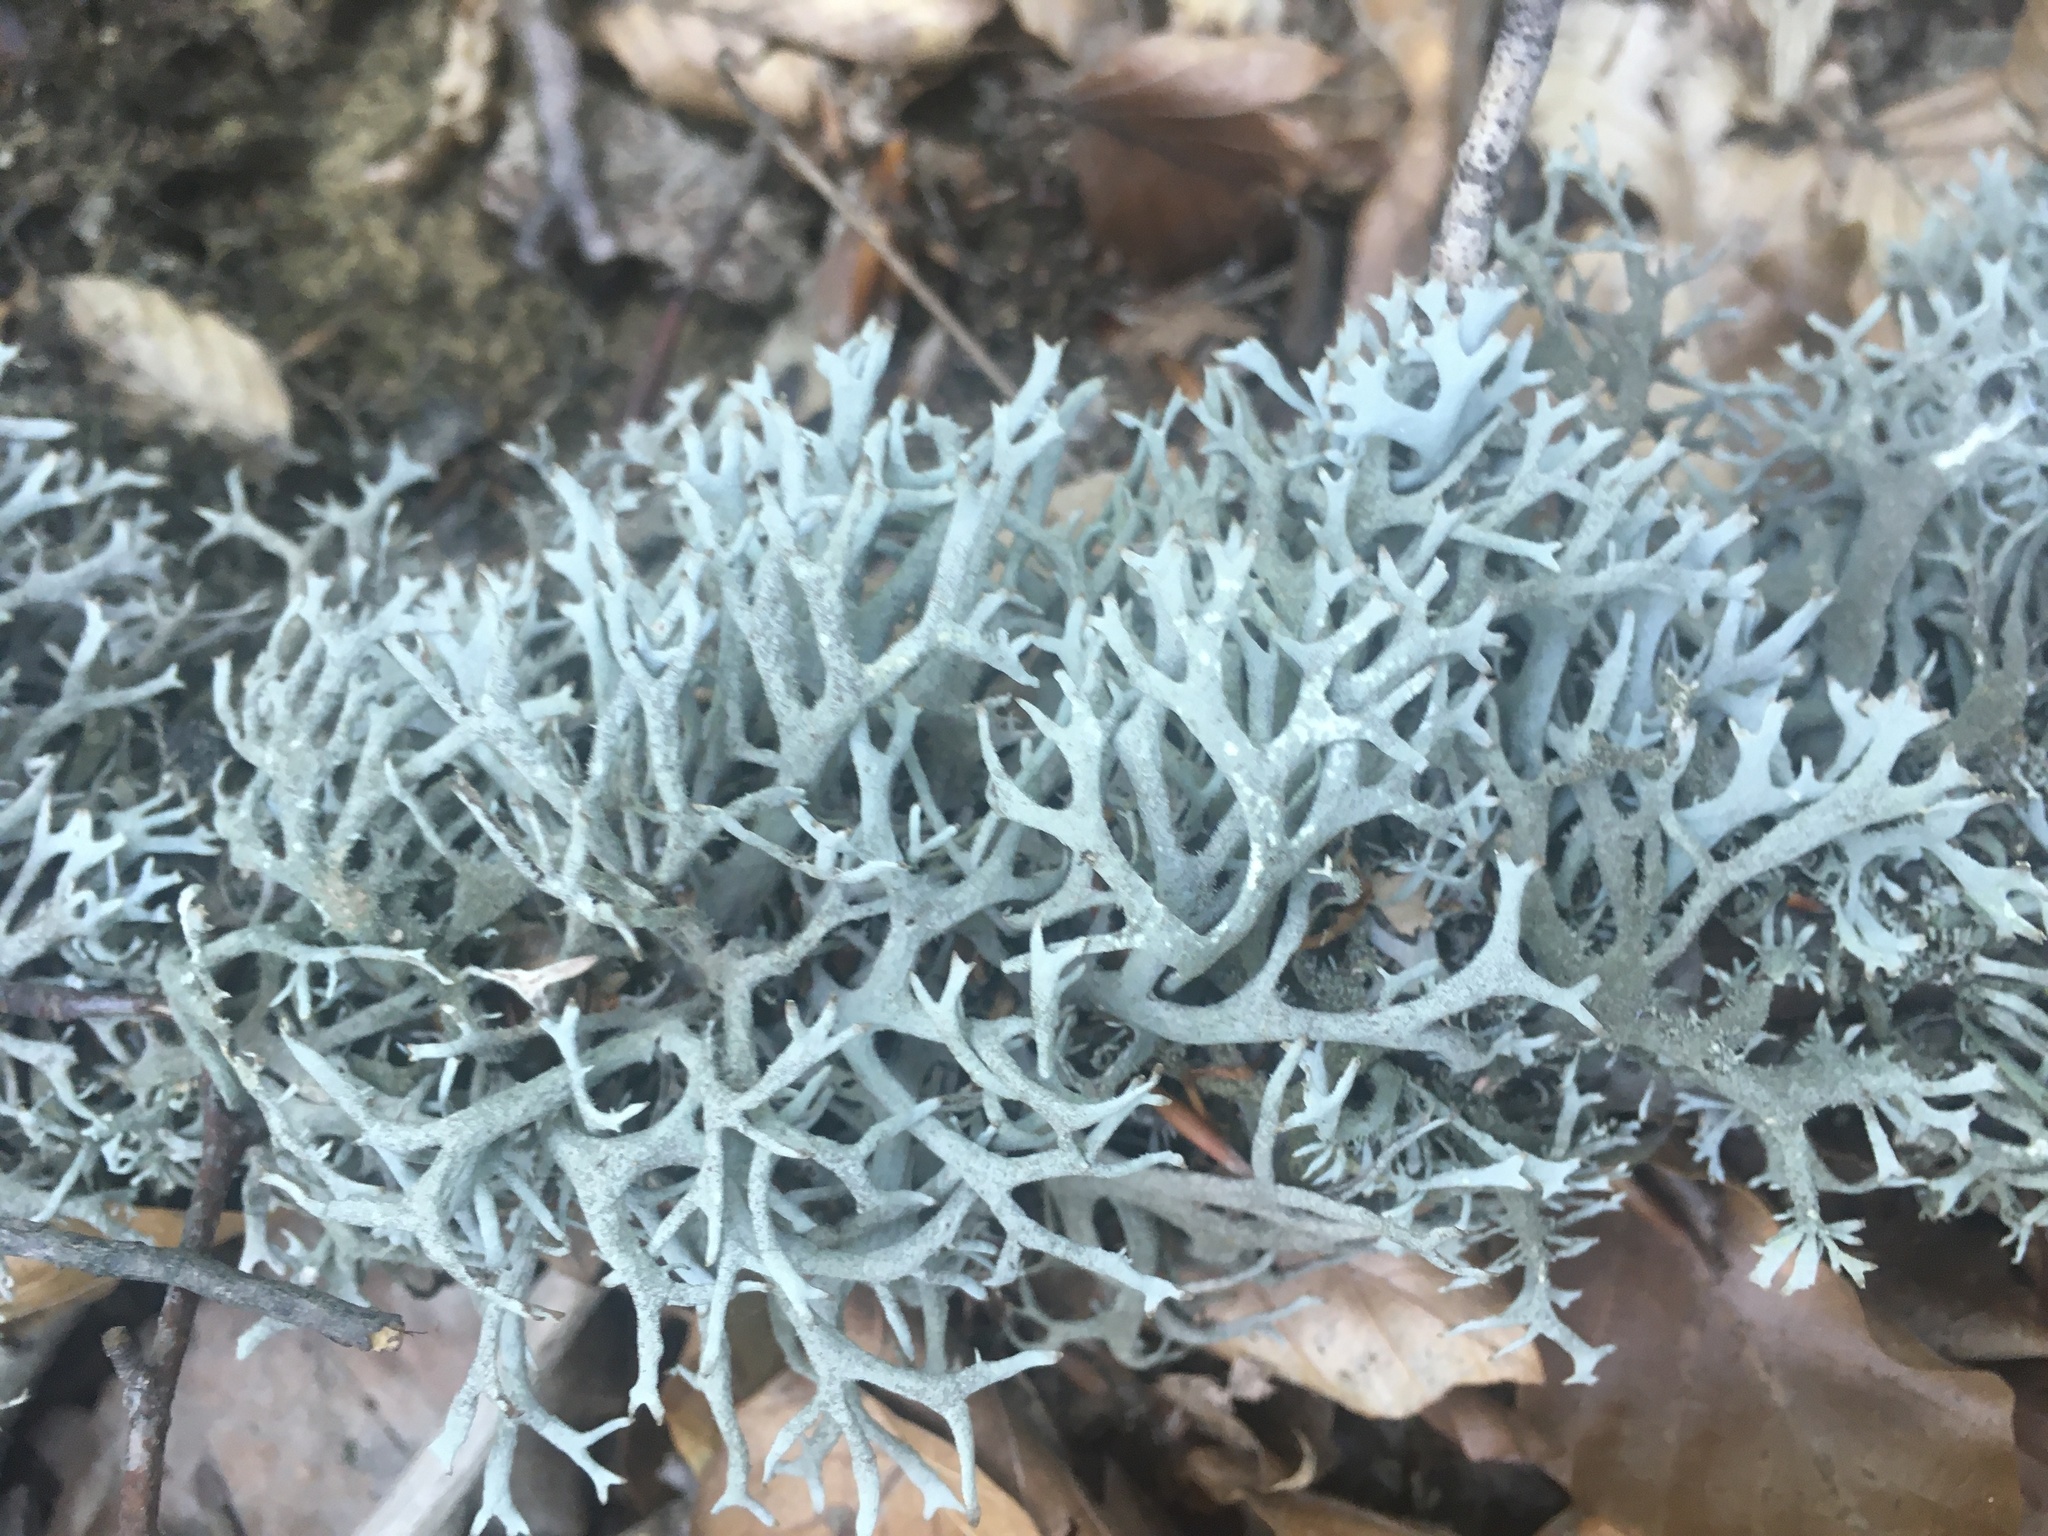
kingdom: Fungi
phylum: Ascomycota
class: Lecanoromycetes
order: Lecanorales
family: Parmeliaceae
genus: Pseudevernia
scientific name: Pseudevernia furfuracea
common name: Tree moss
